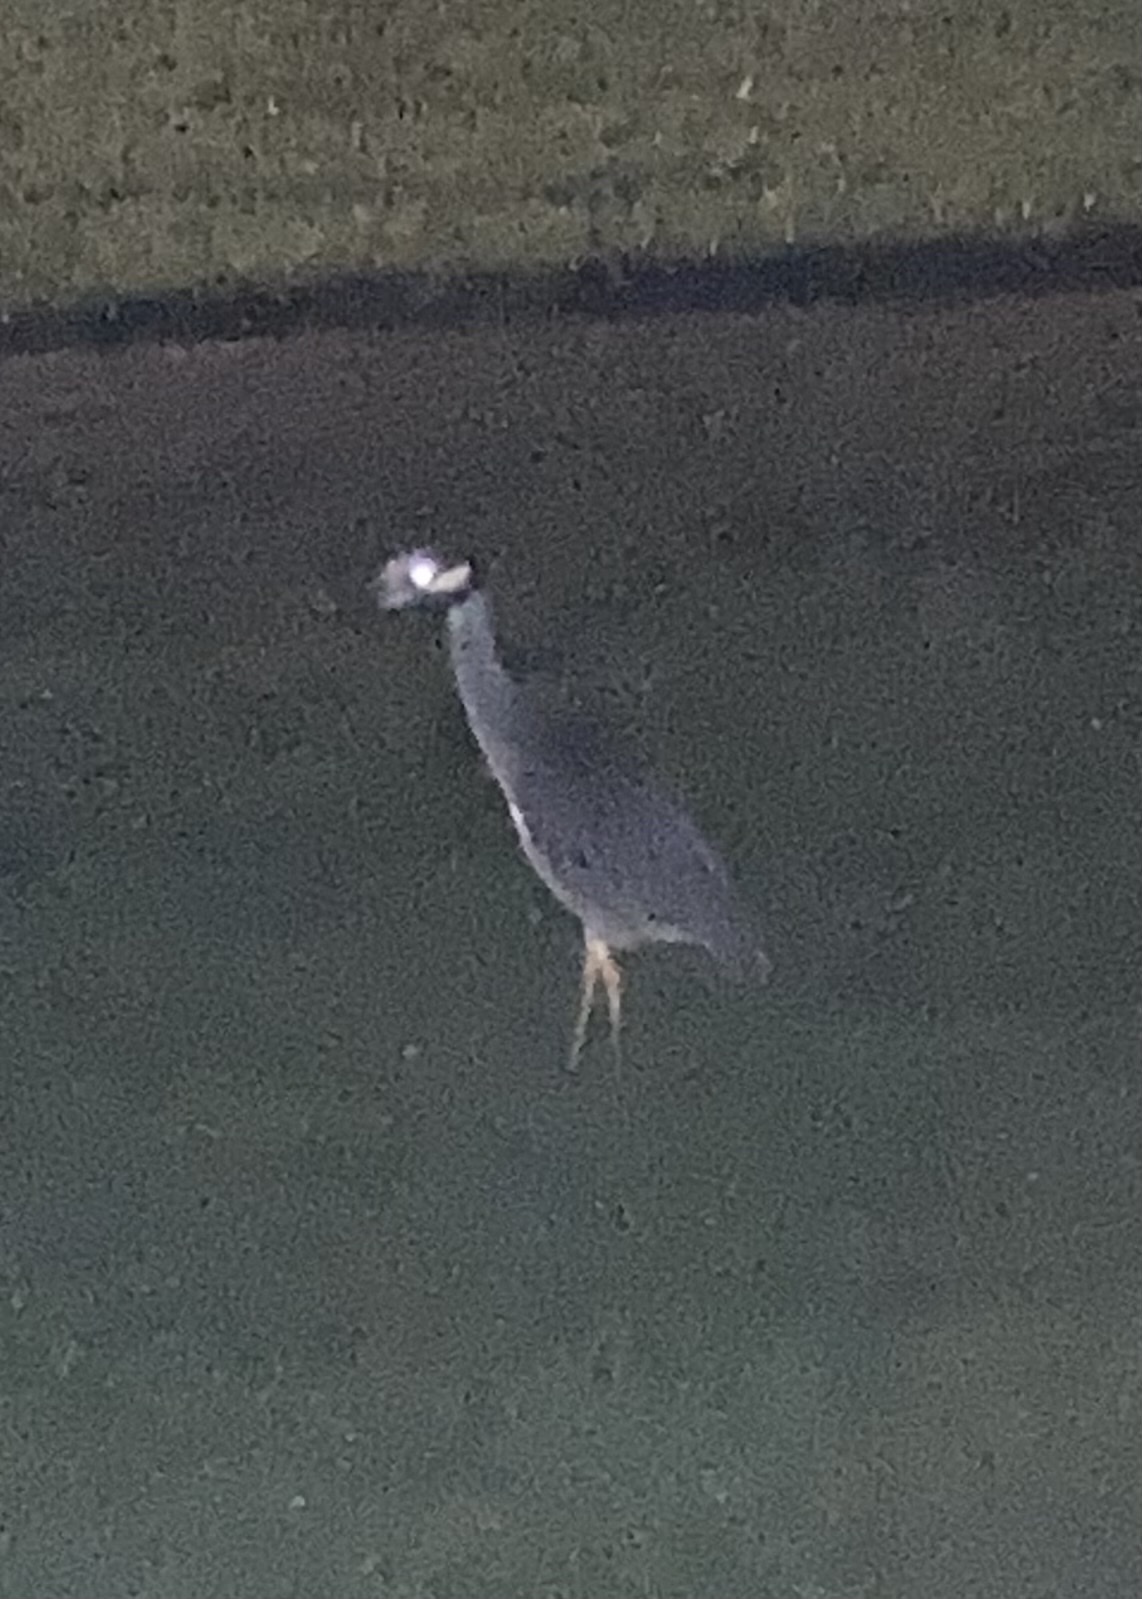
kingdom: Animalia
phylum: Chordata
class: Aves
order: Pelecaniformes
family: Ardeidae
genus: Nyctanassa
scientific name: Nyctanassa violacea
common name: Yellow-crowned night heron
